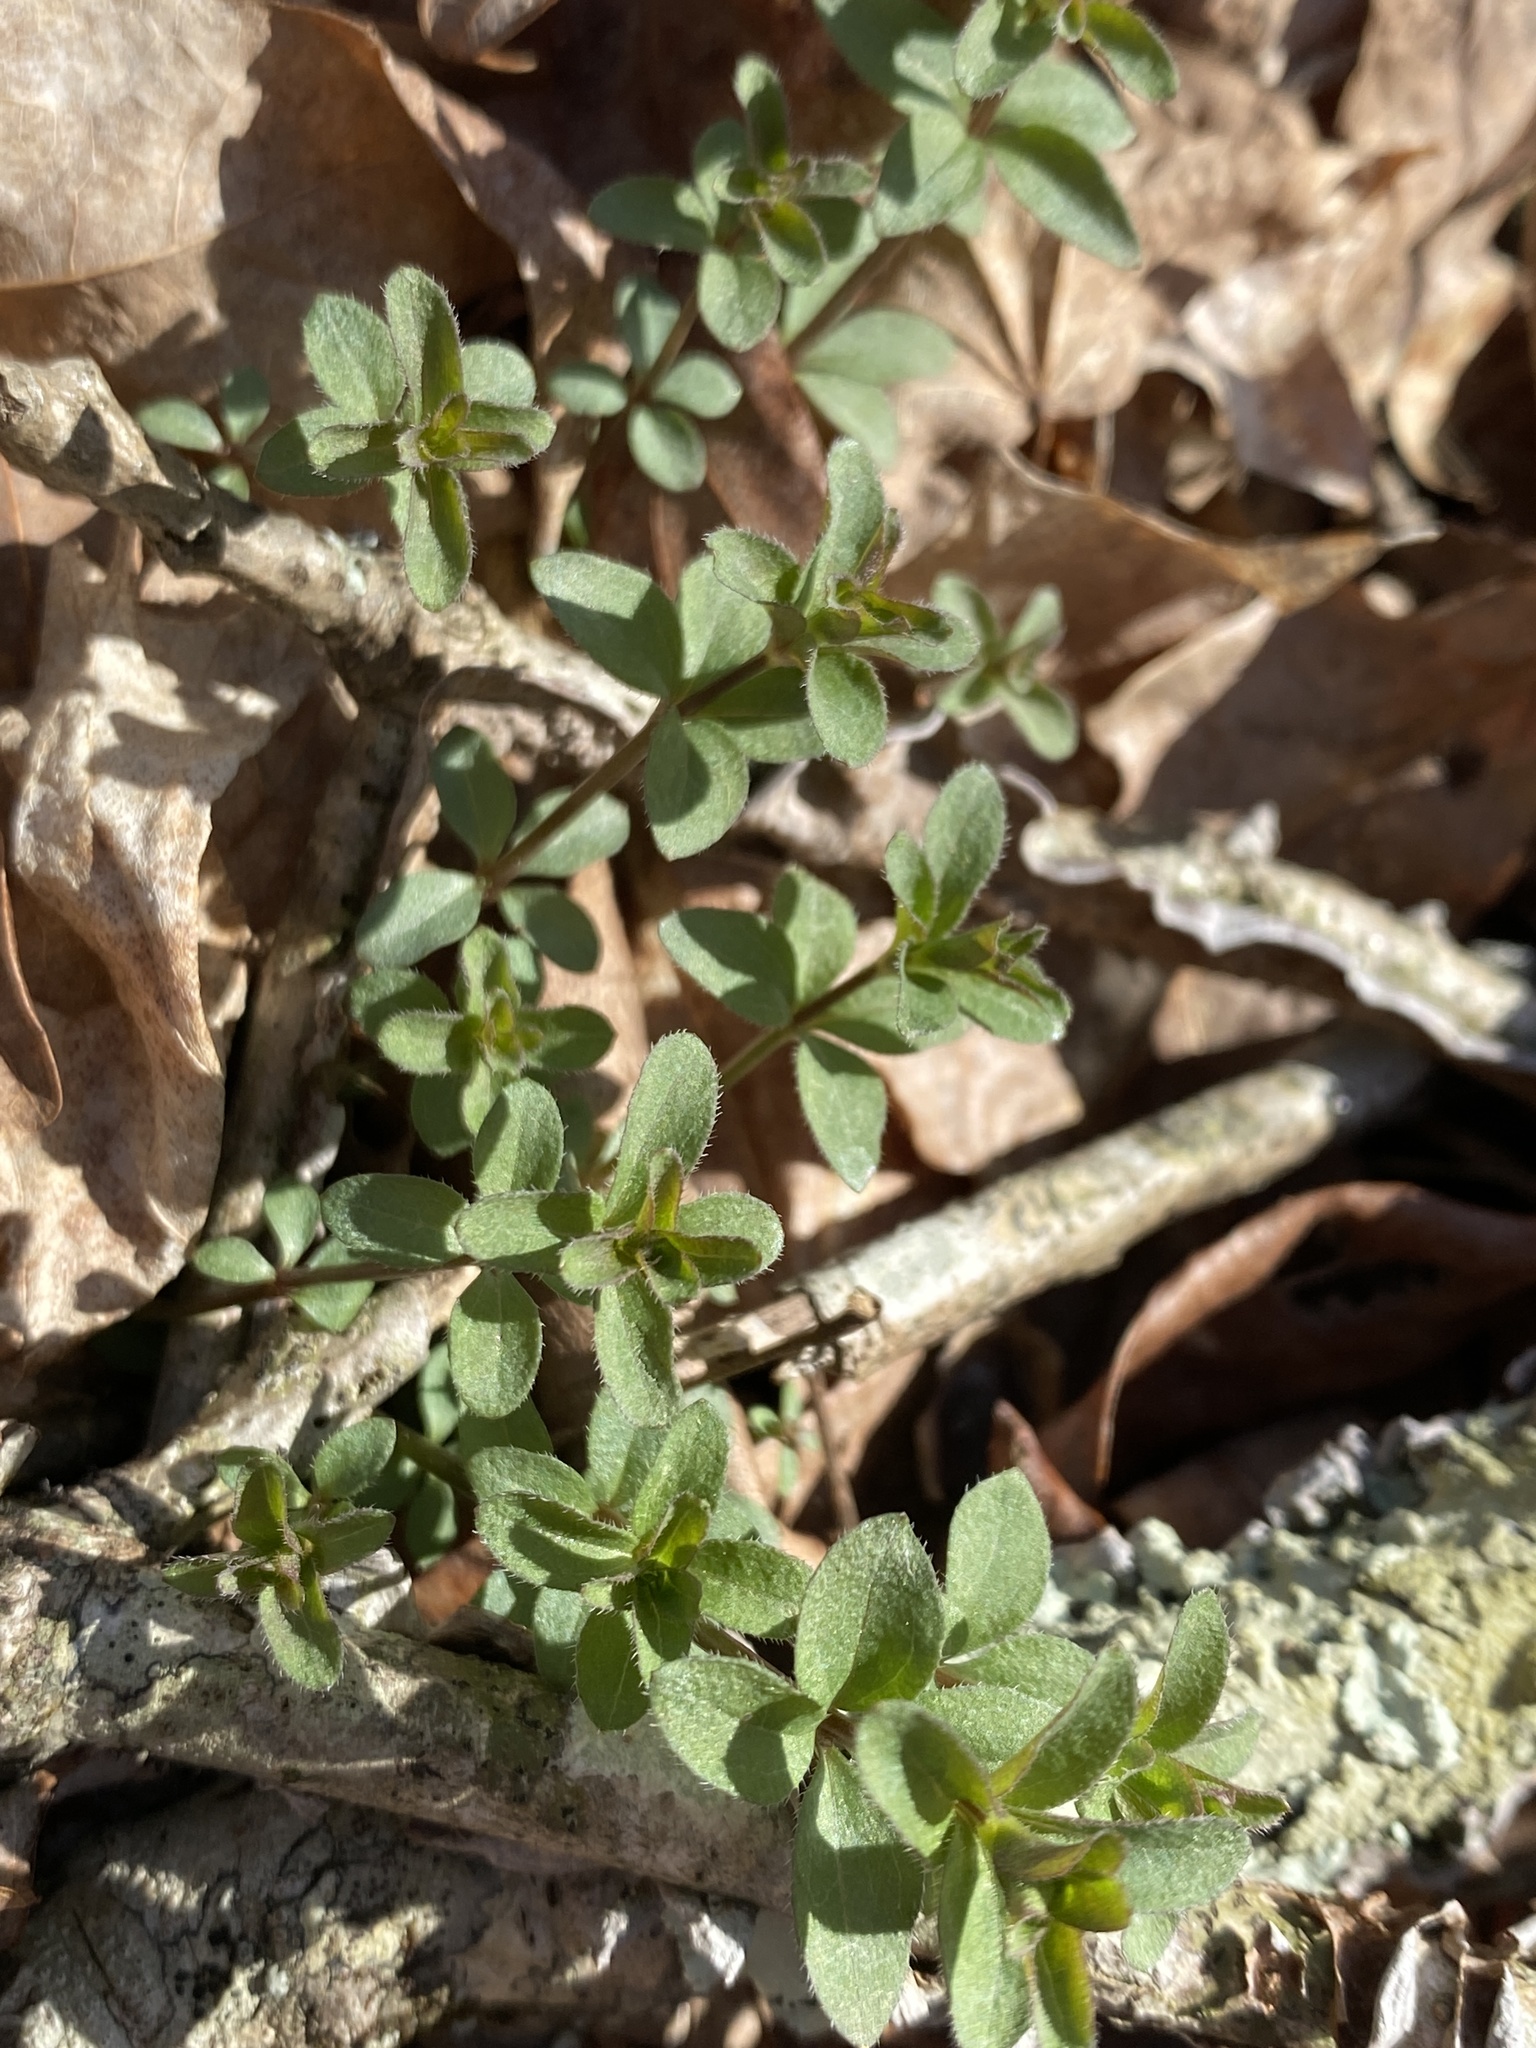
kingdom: Plantae
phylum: Tracheophyta
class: Magnoliopsida
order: Gentianales
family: Rubiaceae
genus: Galium
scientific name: Galium circaezans
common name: Forest bedstraw
